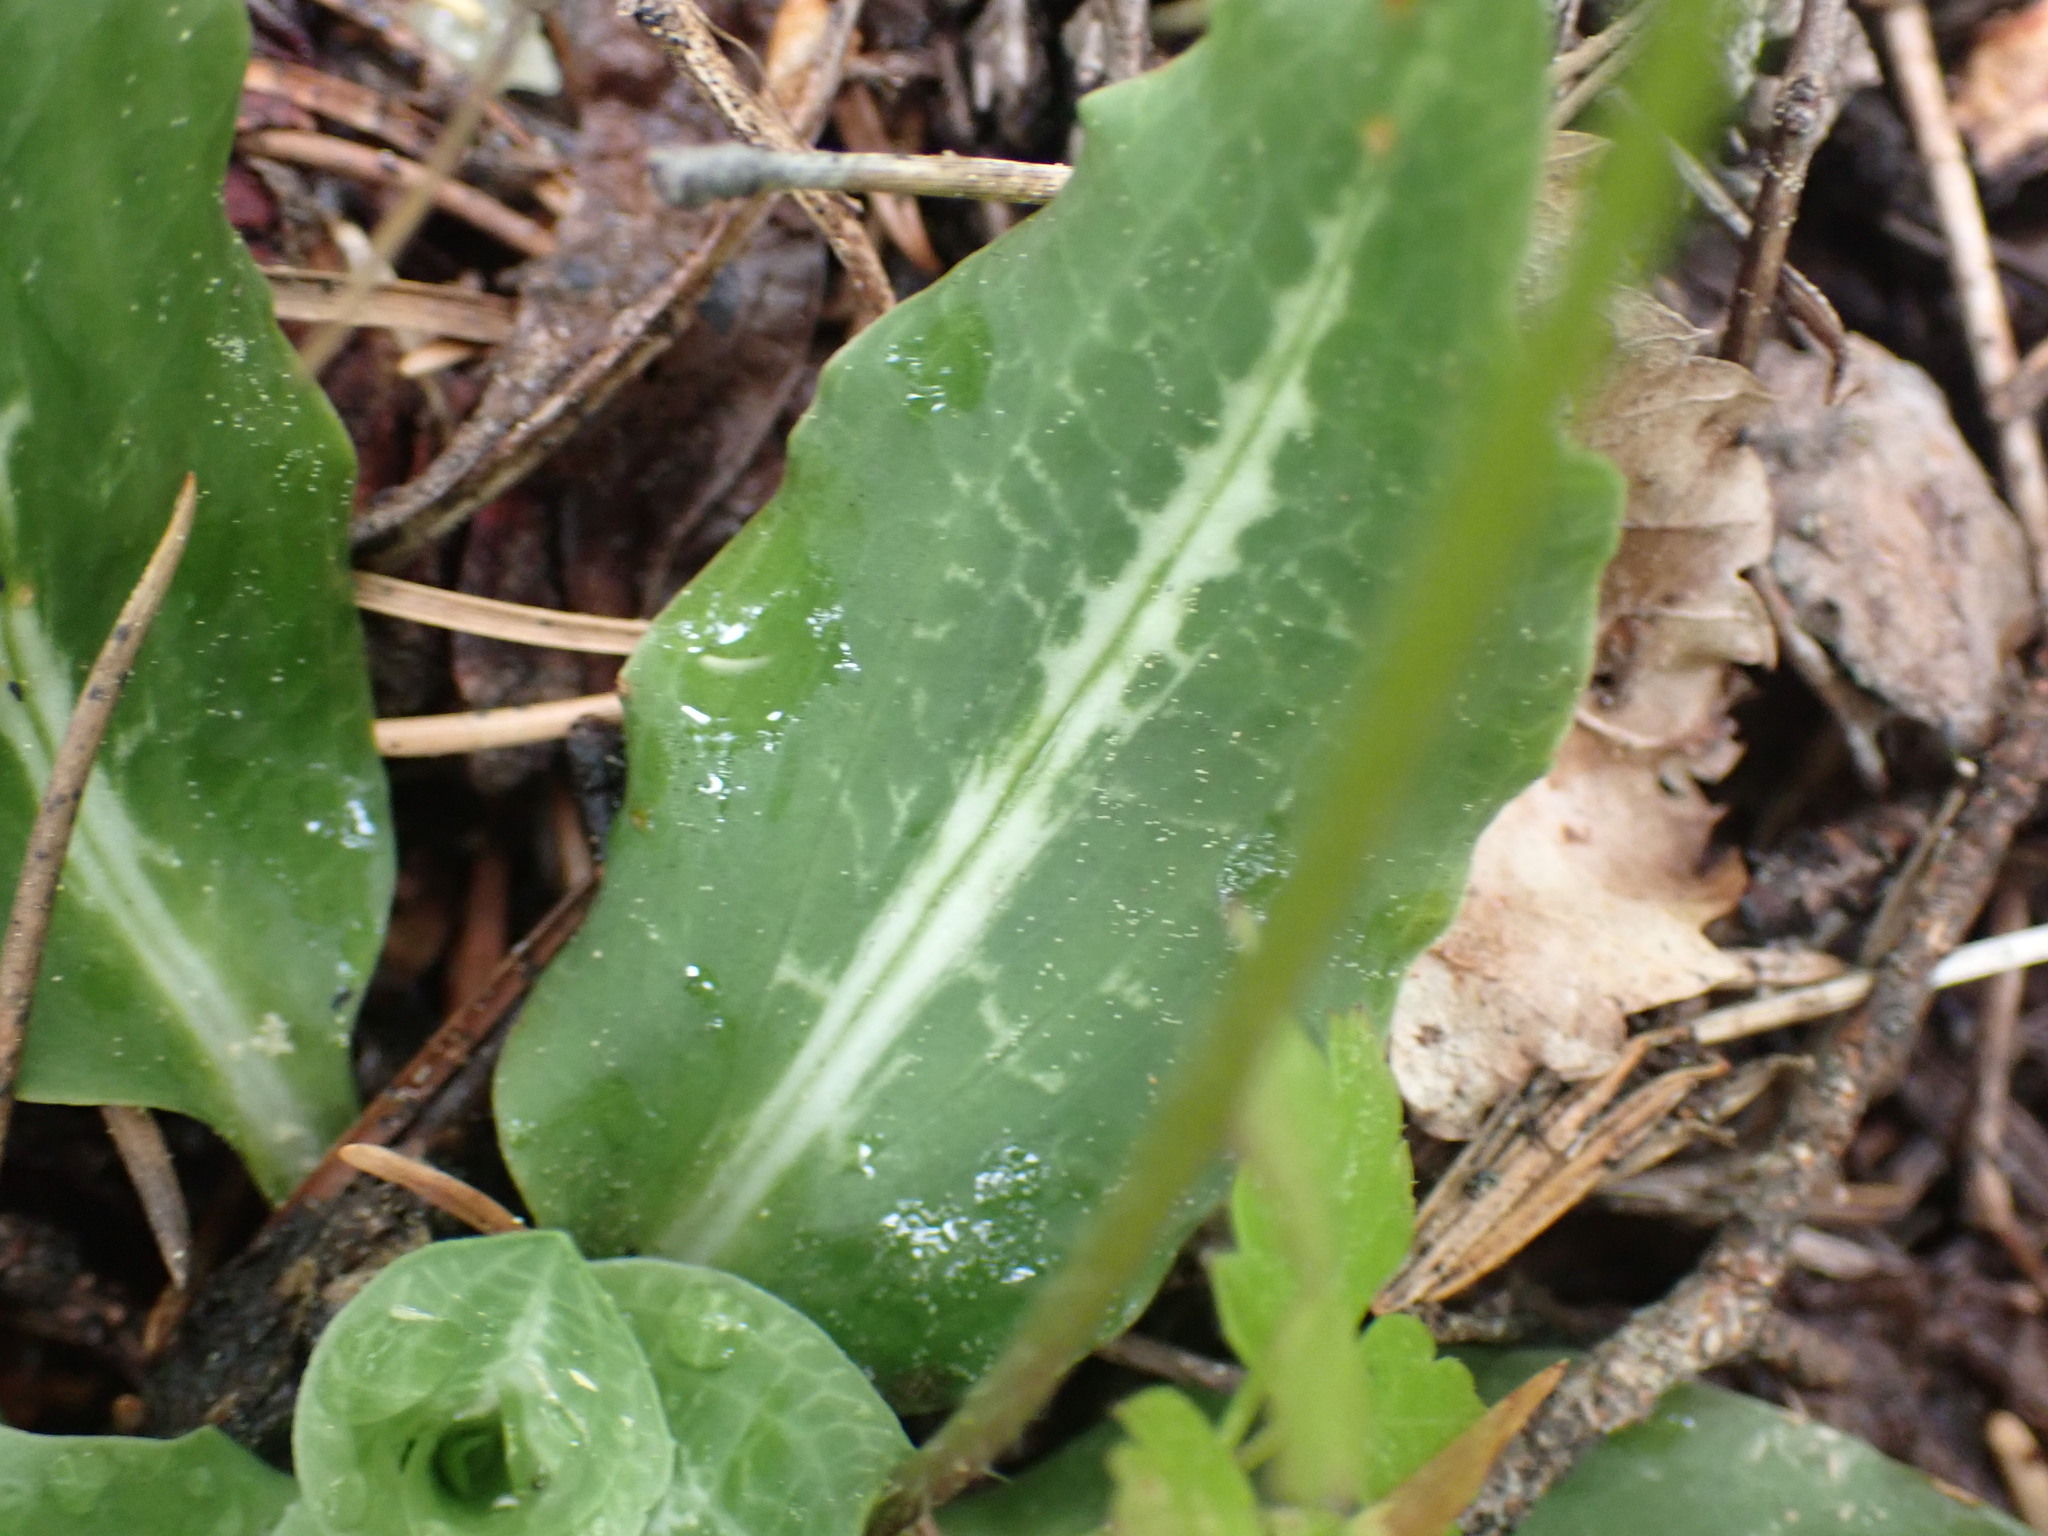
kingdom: Plantae
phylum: Tracheophyta
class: Liliopsida
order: Asparagales
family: Orchidaceae
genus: Goodyera
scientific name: Goodyera oblongifolia
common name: Giant rattlesnake-plantain
